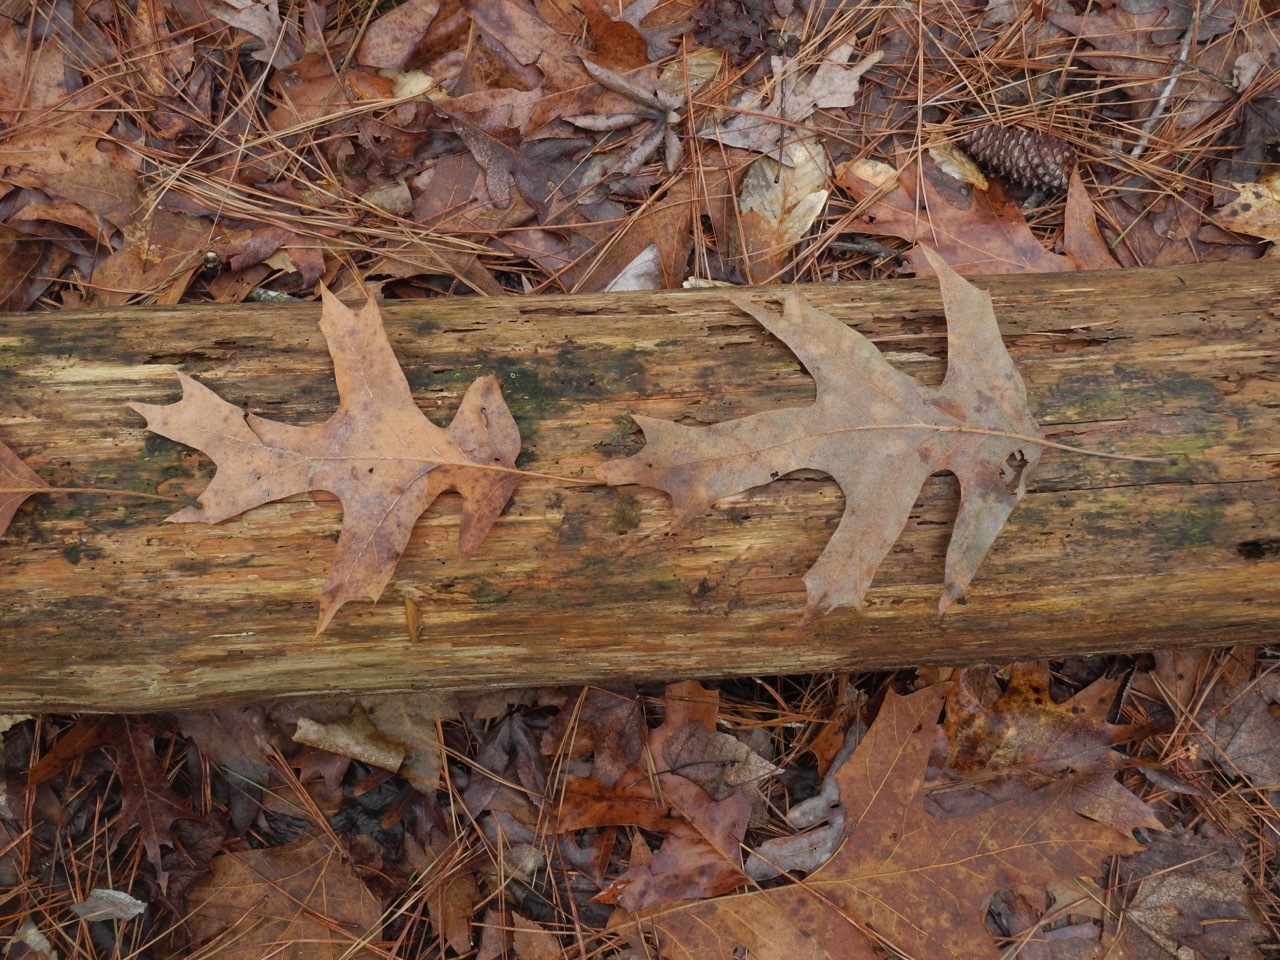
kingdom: Plantae
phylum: Tracheophyta
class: Magnoliopsida
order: Fagales
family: Fagaceae
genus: Quercus
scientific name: Quercus pagoda
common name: Cherrybark oak
